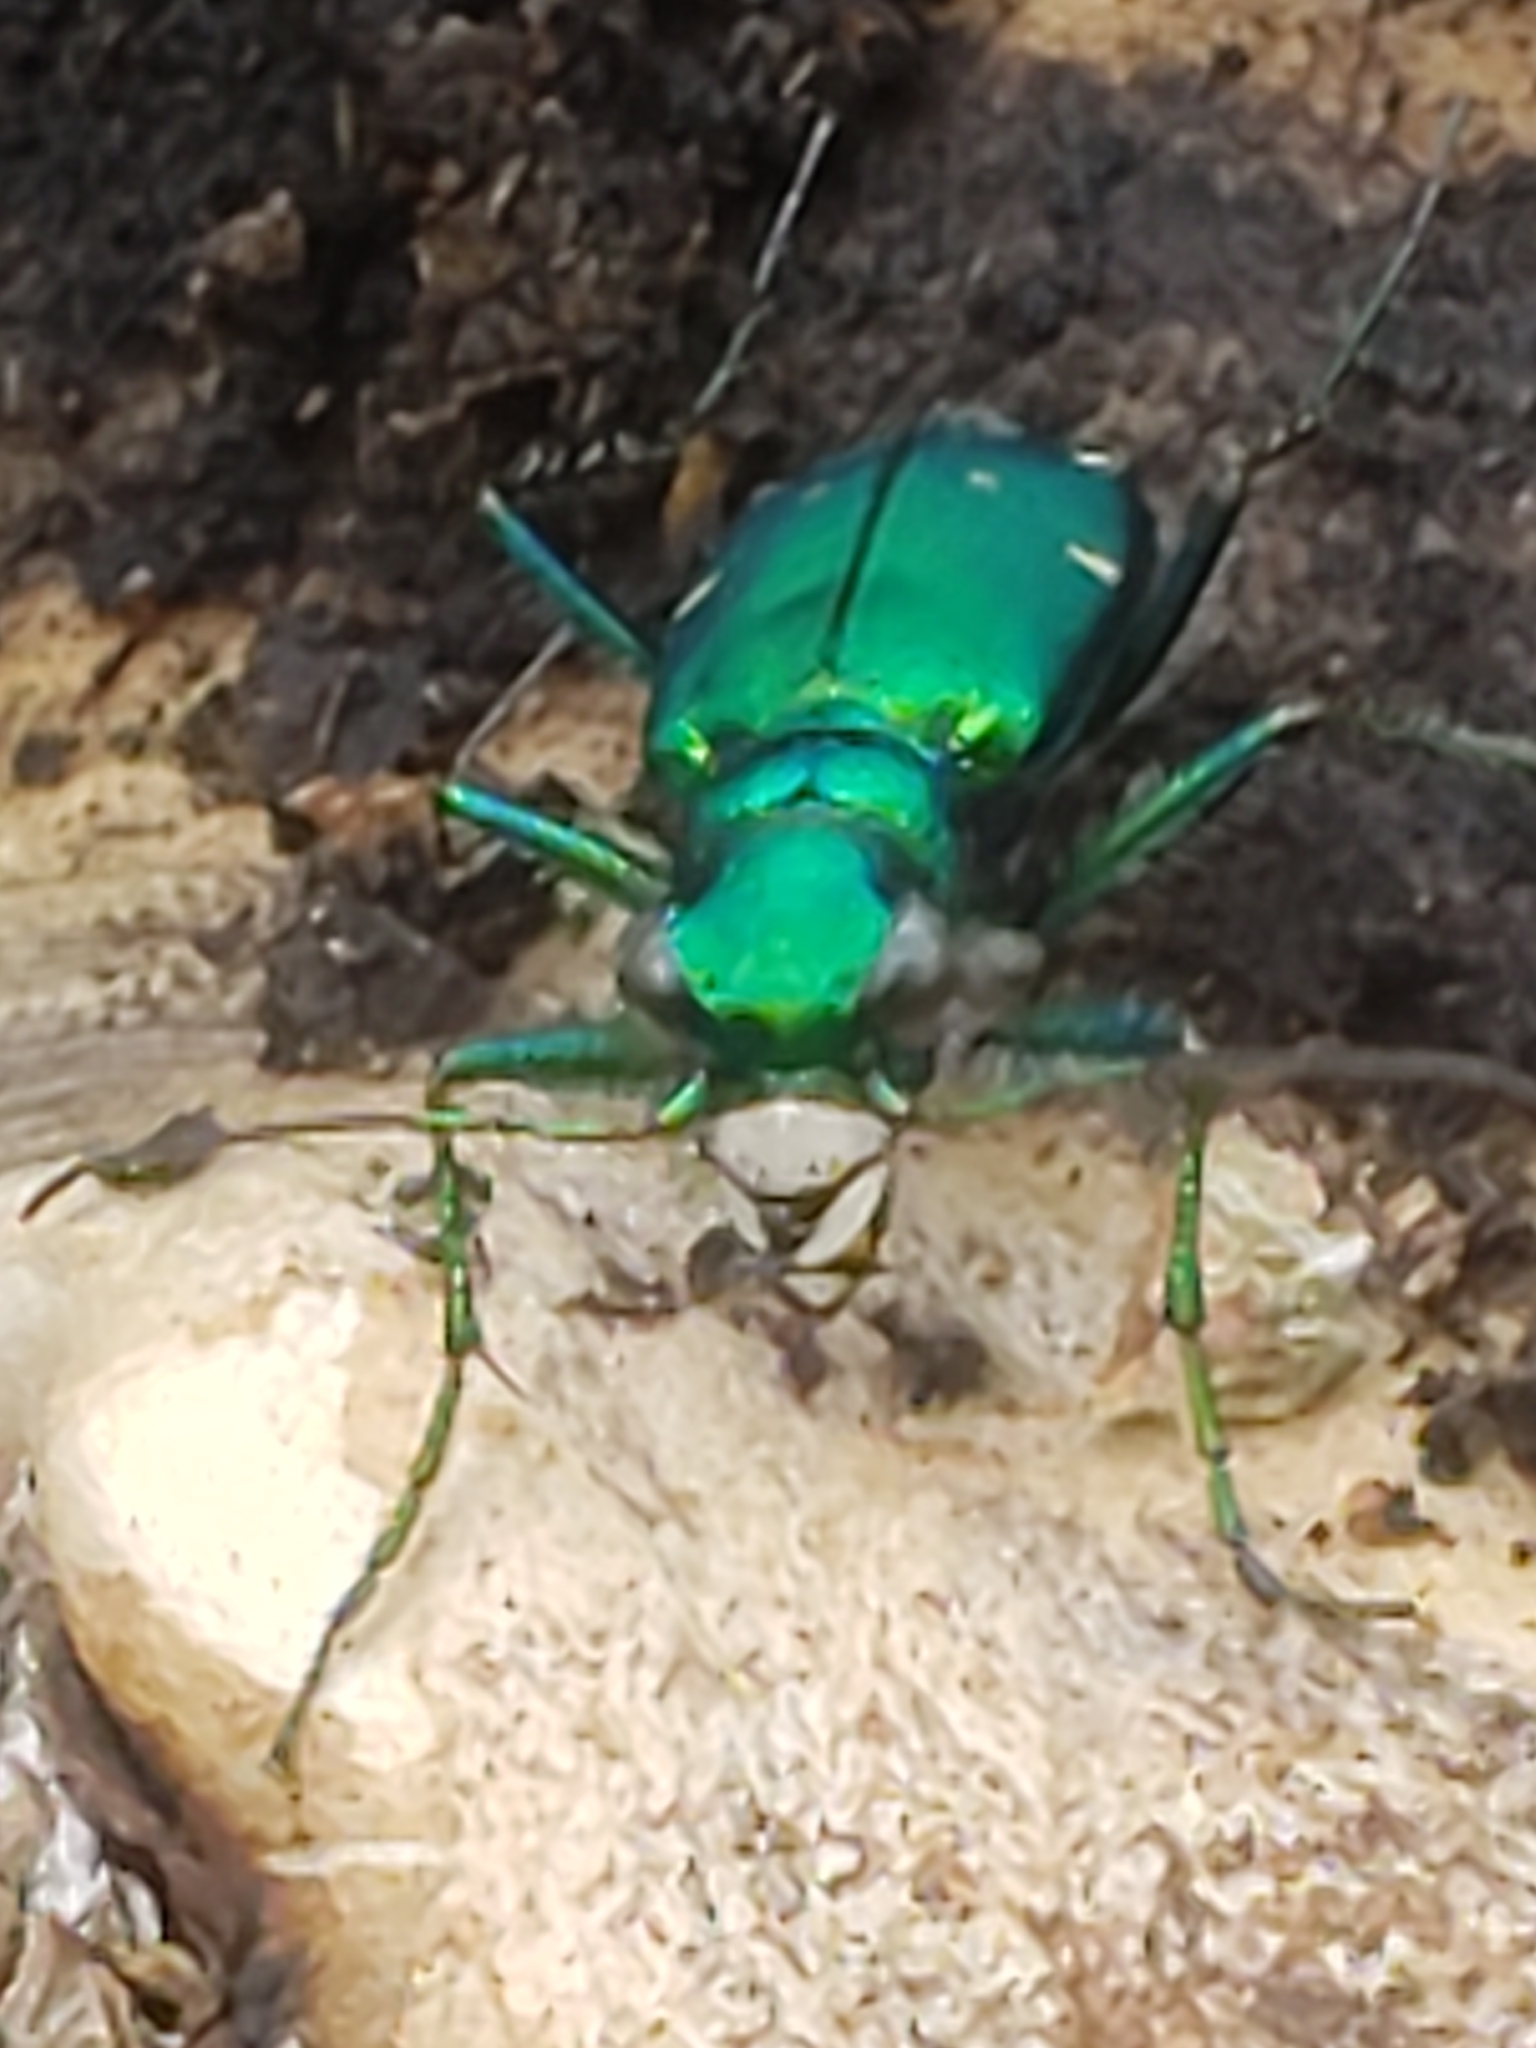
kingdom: Animalia
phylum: Arthropoda
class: Insecta
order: Coleoptera
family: Carabidae
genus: Cicindela
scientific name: Cicindela sexguttata
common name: Six-spotted tiger beetle
